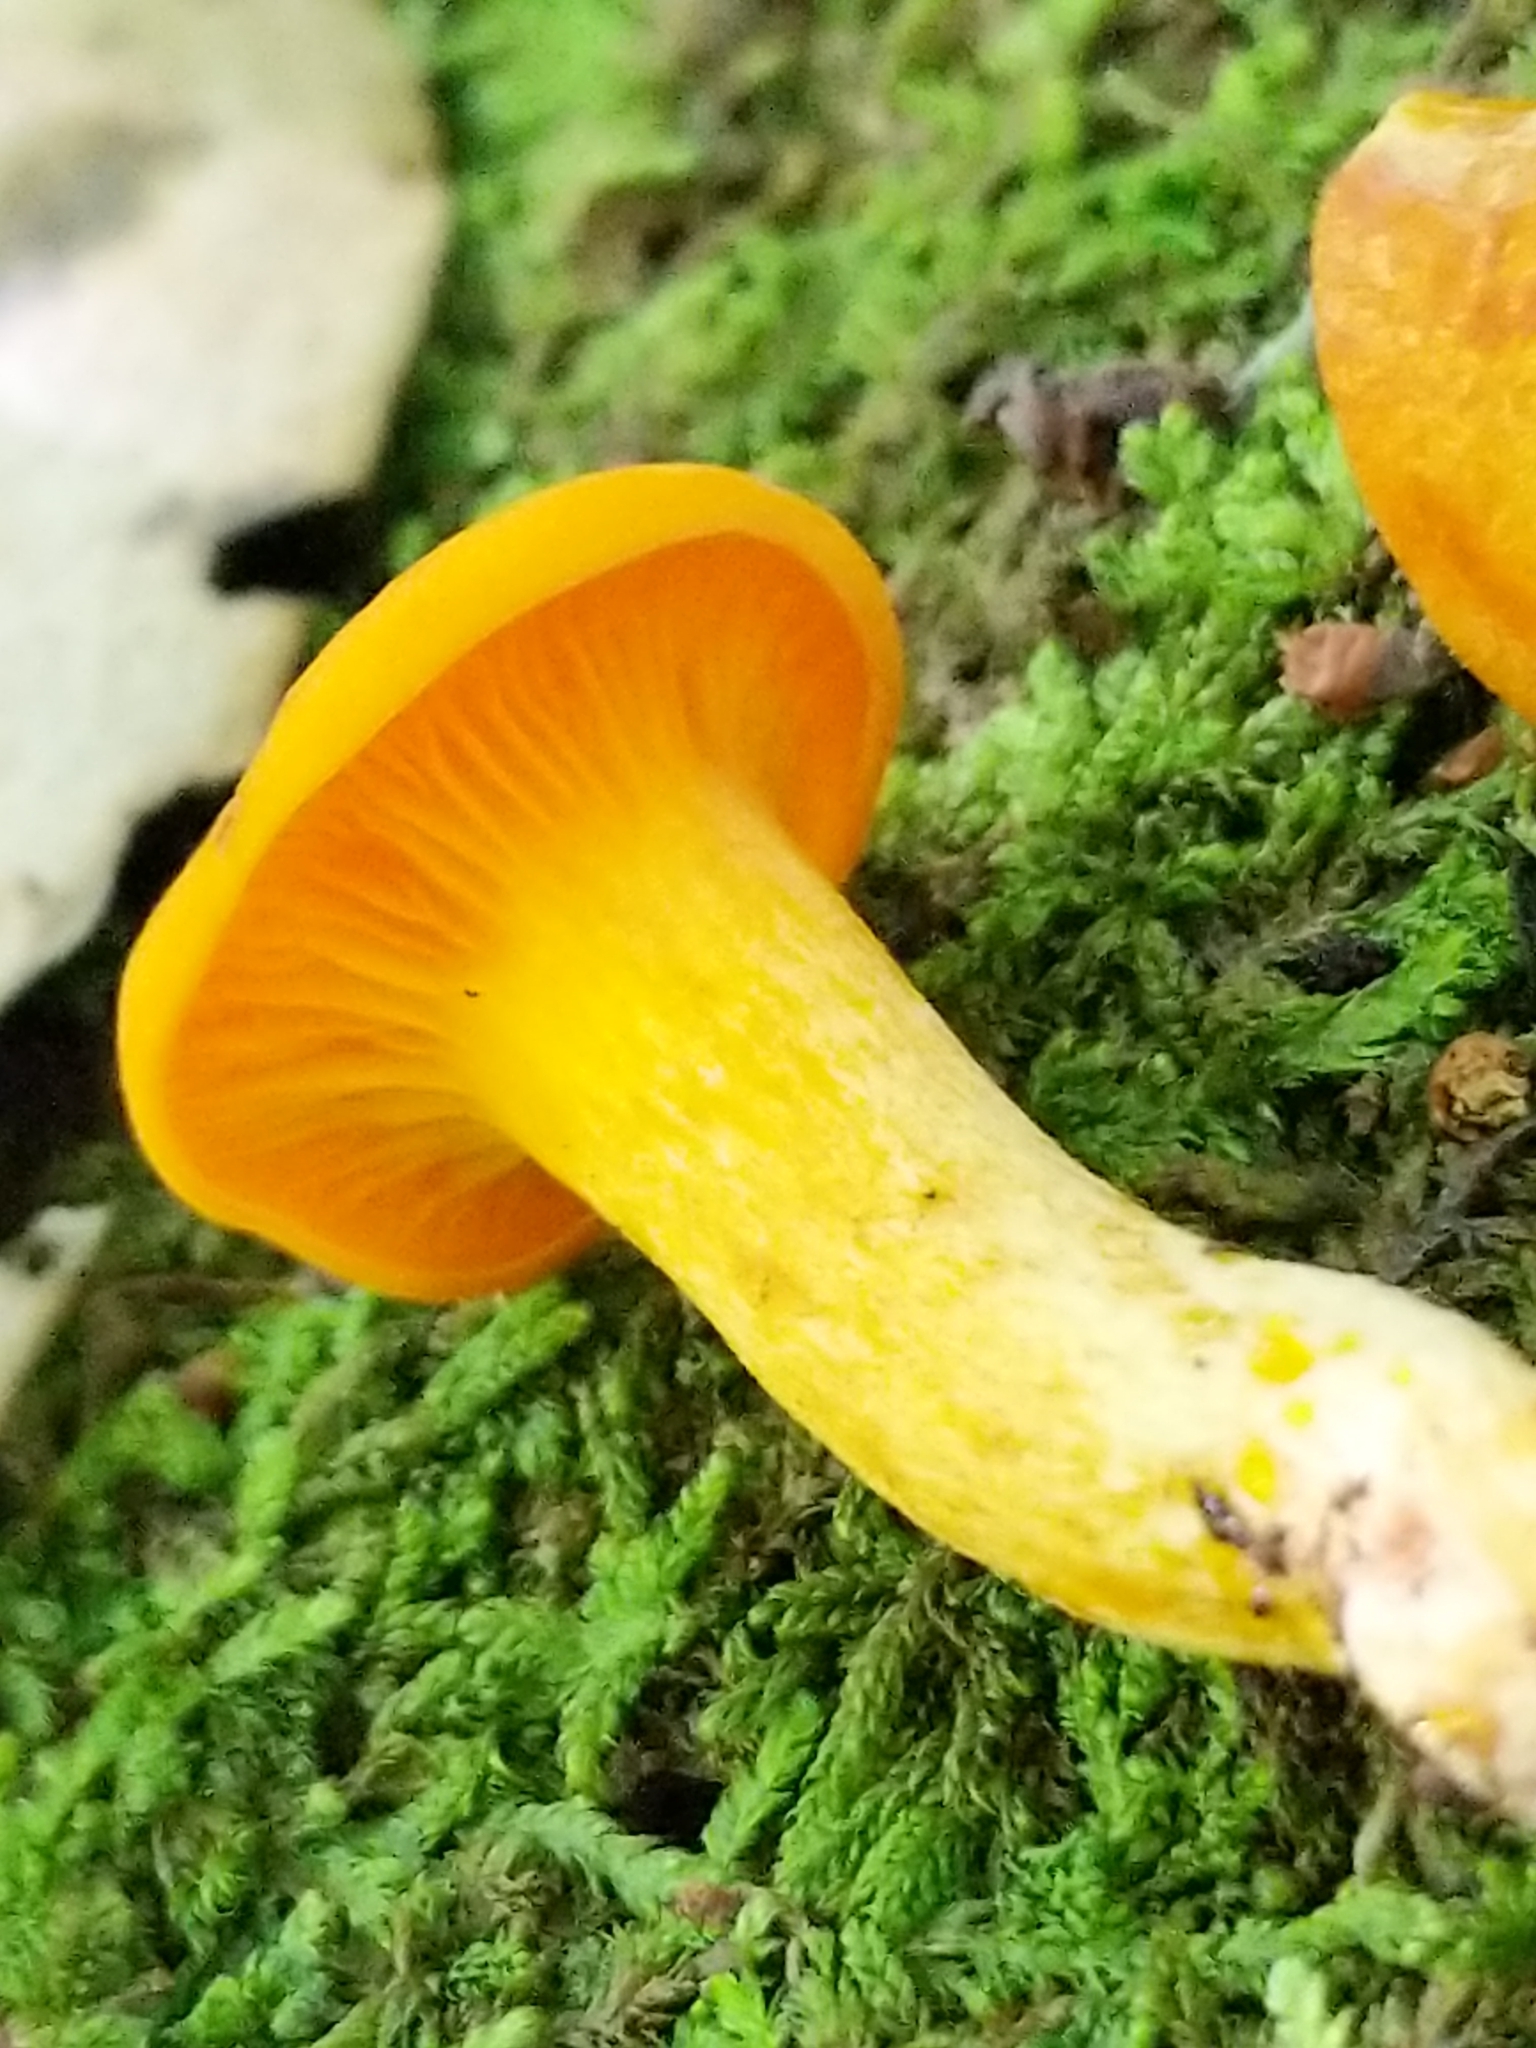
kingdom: Fungi
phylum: Basidiomycota
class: Agaricomycetes
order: Agaricales
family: Omphalotaceae
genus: Omphalotus
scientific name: Omphalotus illudens
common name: Jack o lantern
